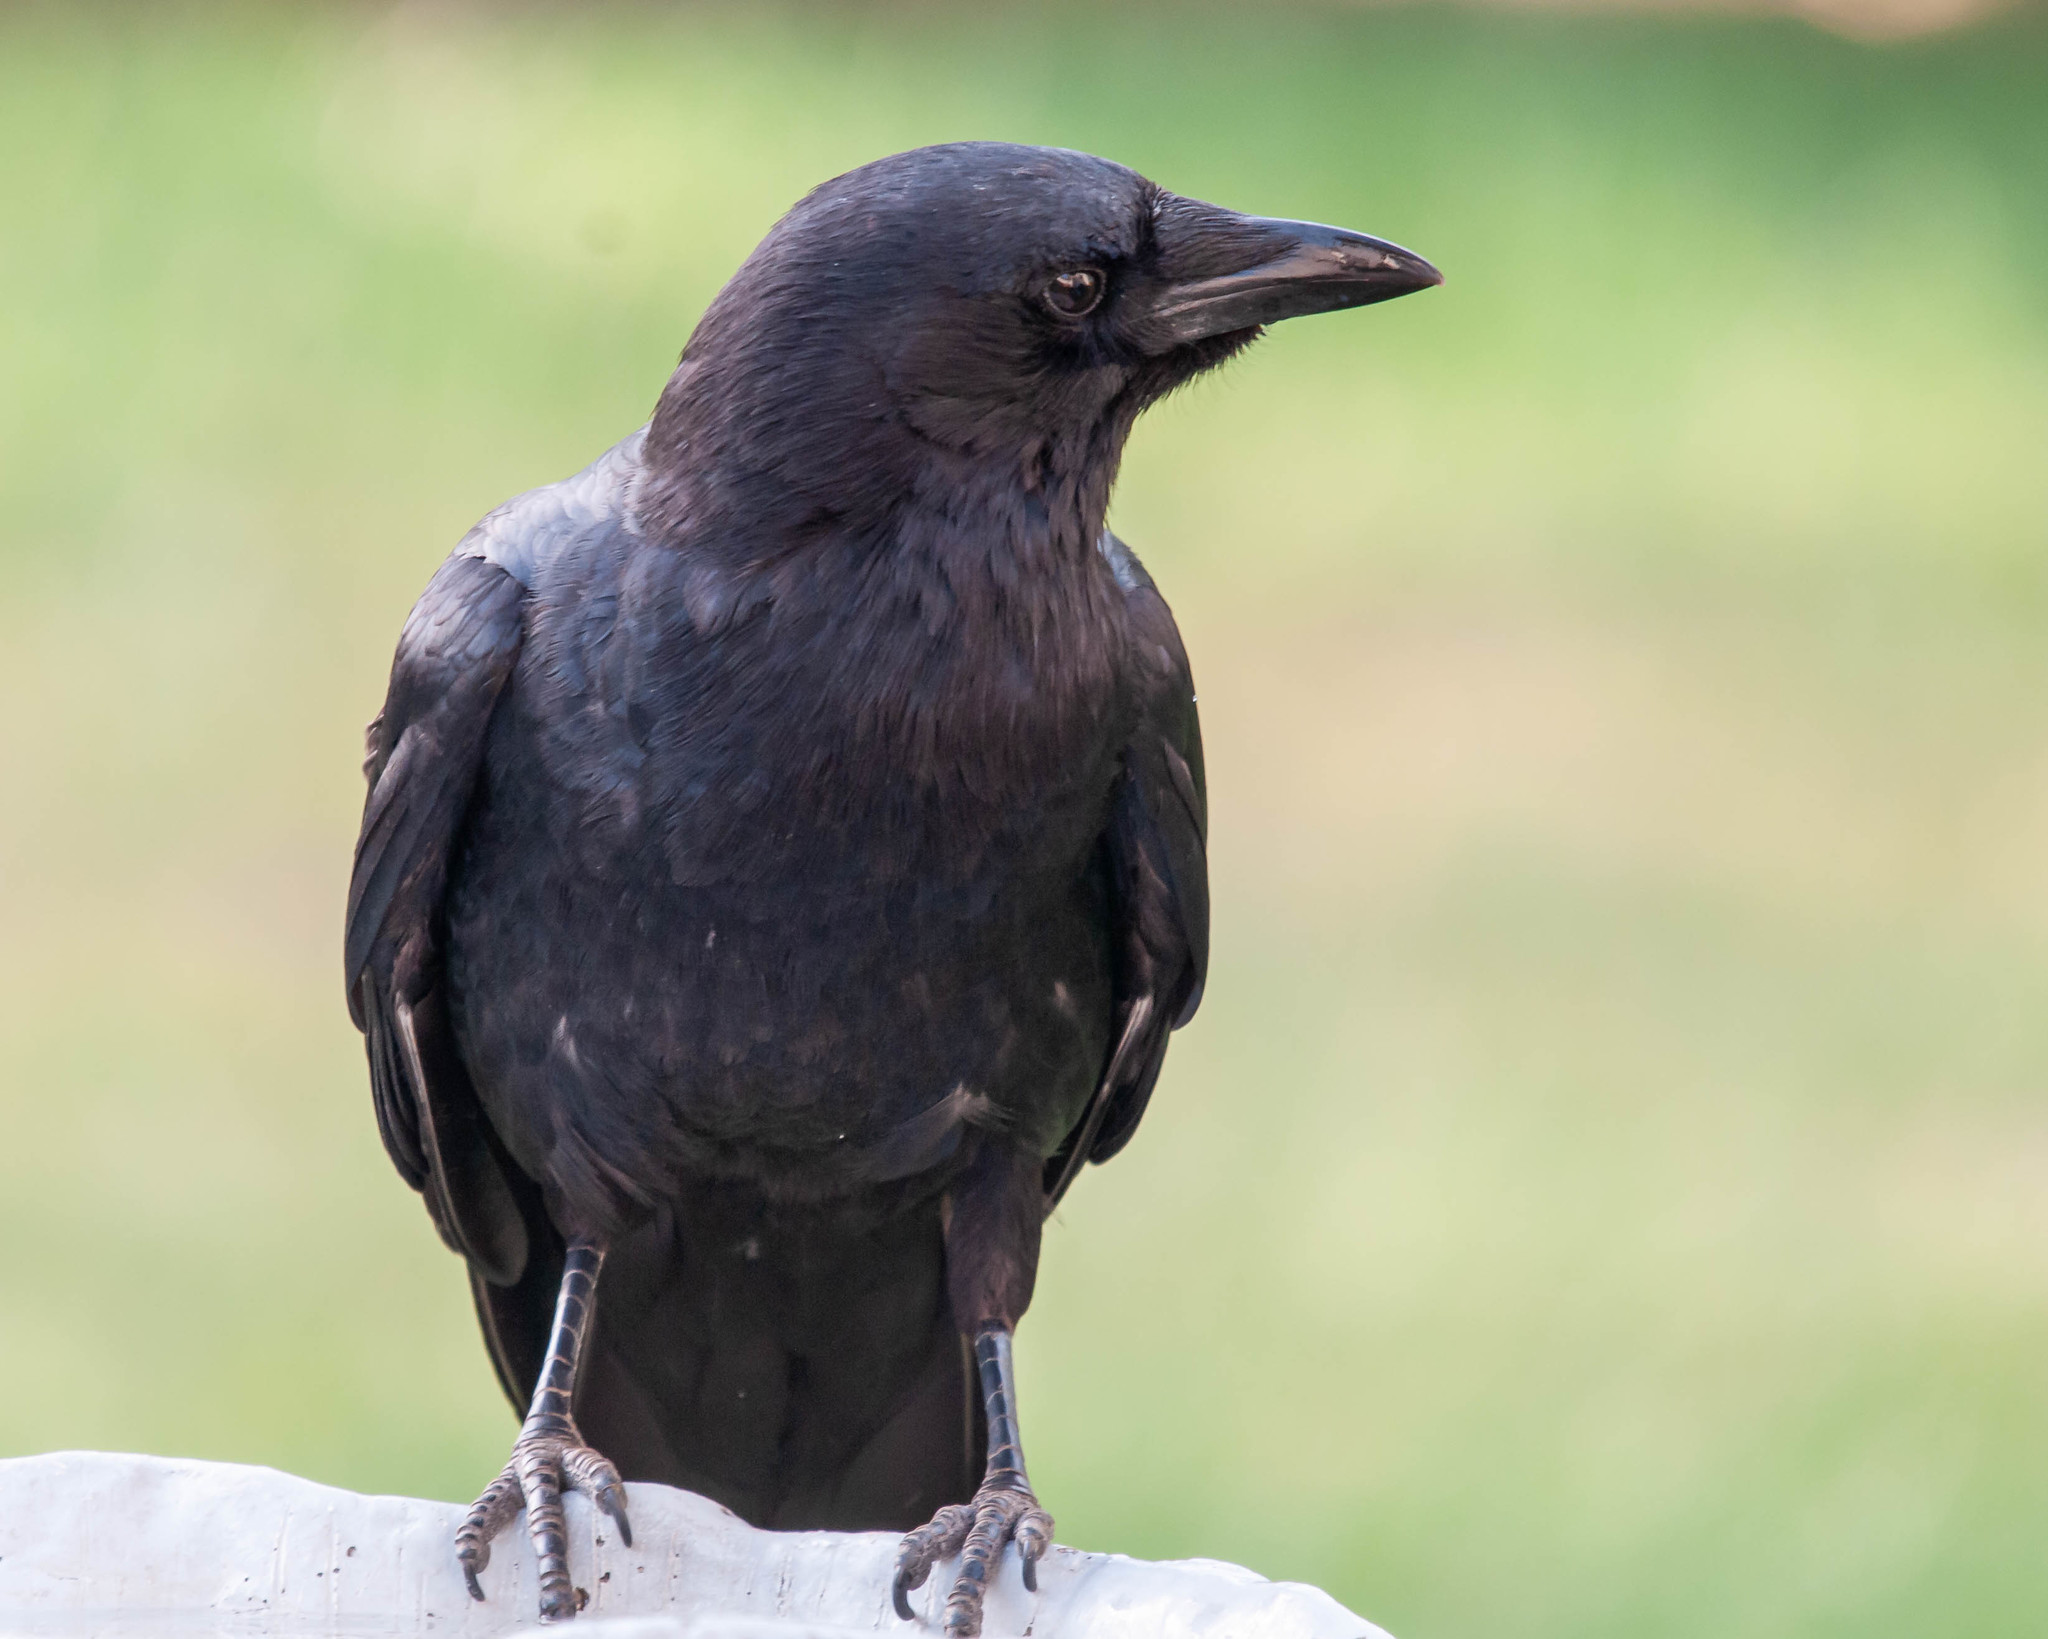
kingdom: Animalia
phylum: Chordata
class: Aves
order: Passeriformes
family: Corvidae
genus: Corvus
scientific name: Corvus brachyrhynchos
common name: American crow
